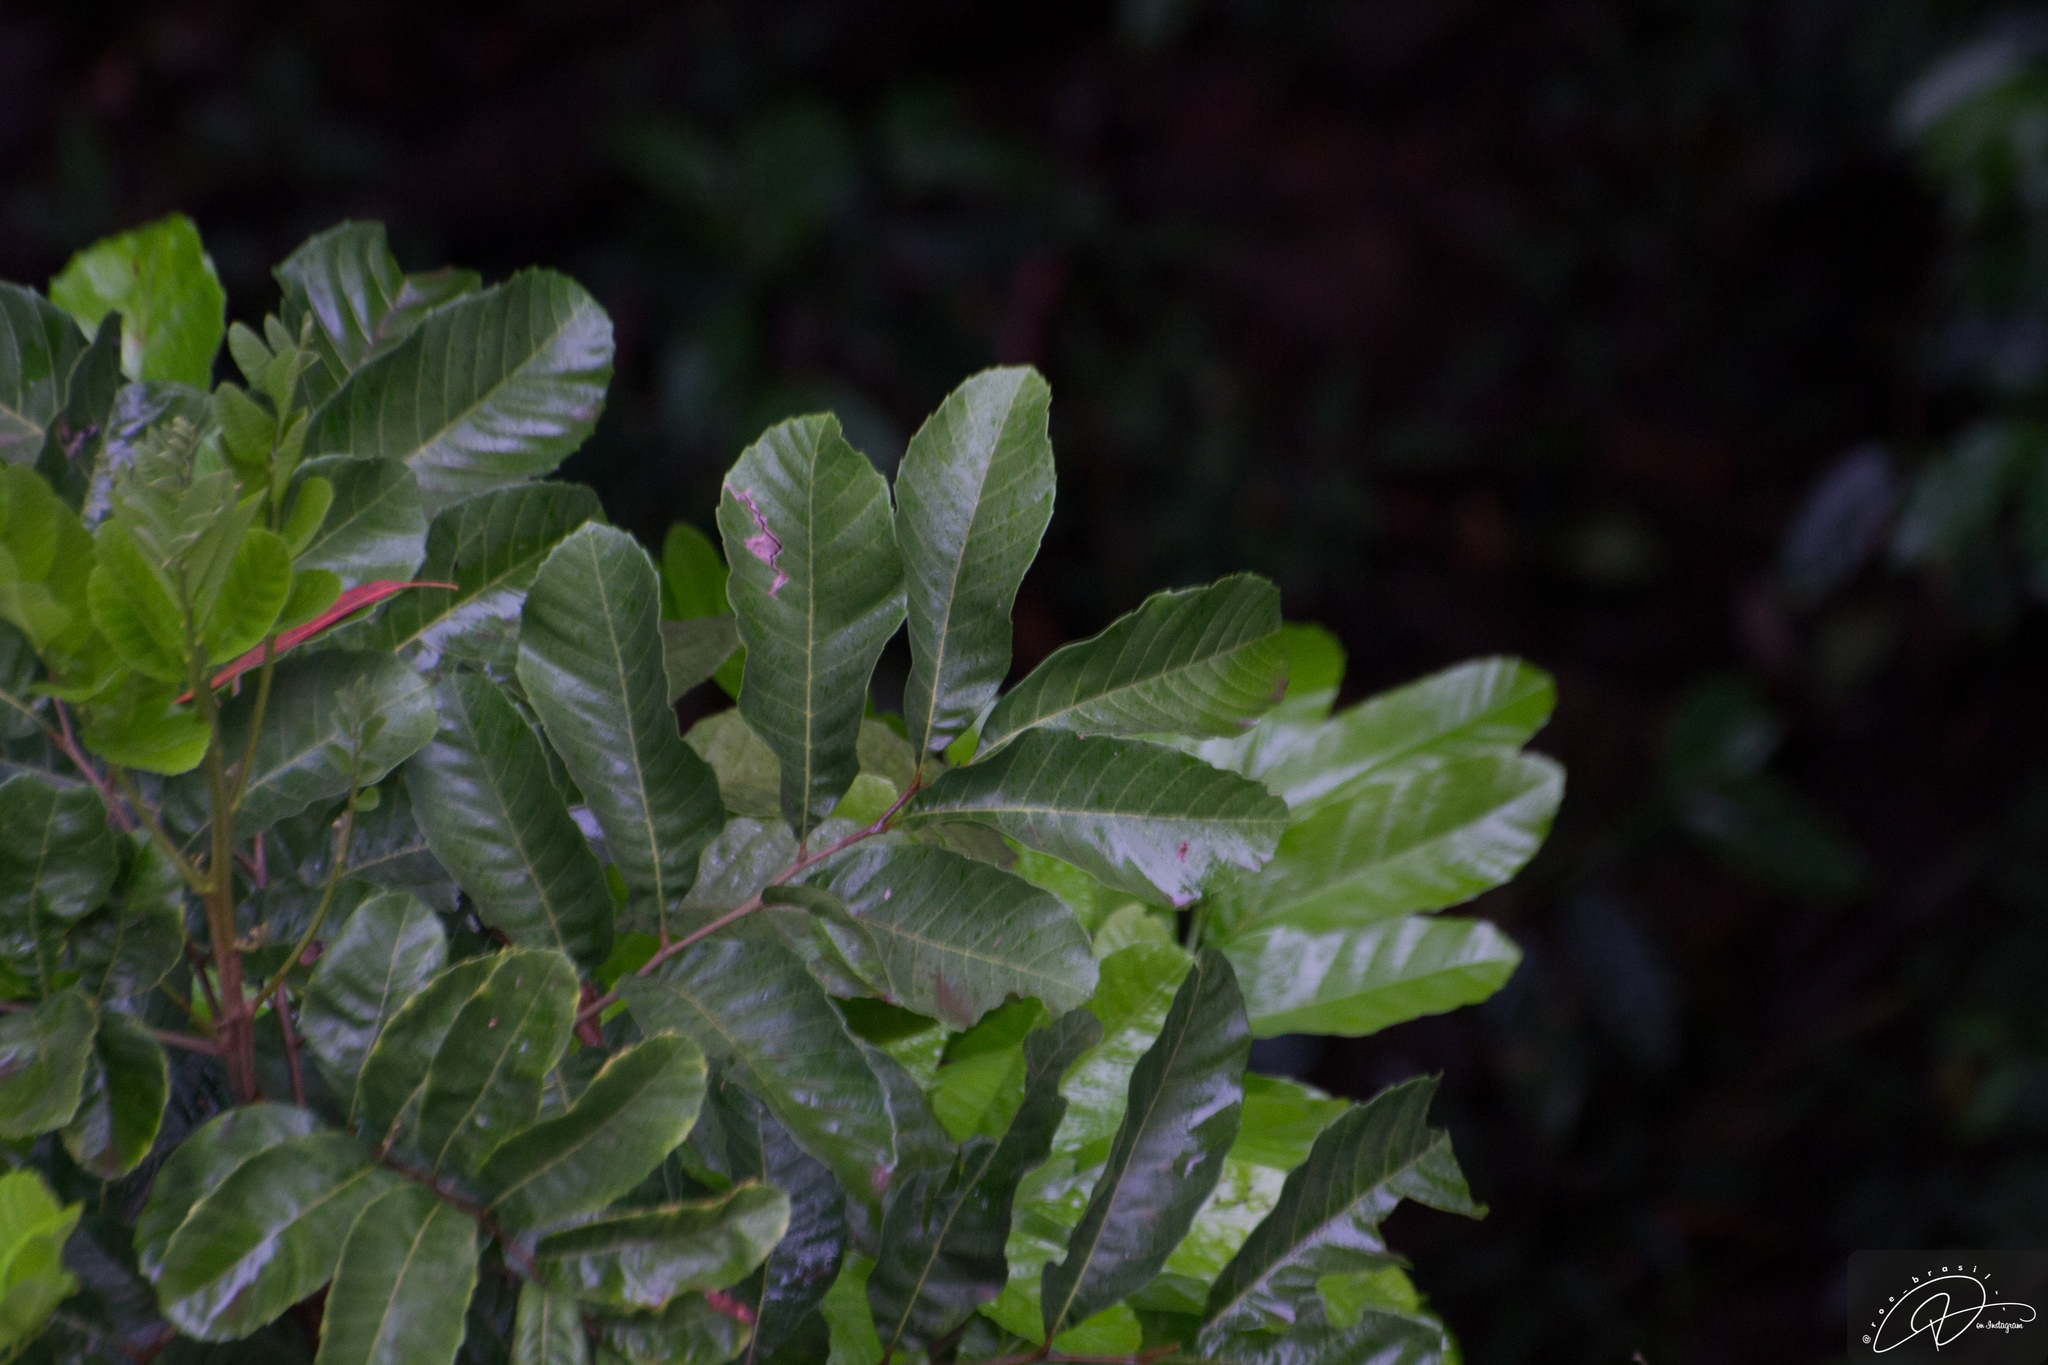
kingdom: Plantae
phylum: Tracheophyta
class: Magnoliopsida
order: Sapindales
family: Sapindaceae
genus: Cupania
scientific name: Cupania vernalis
